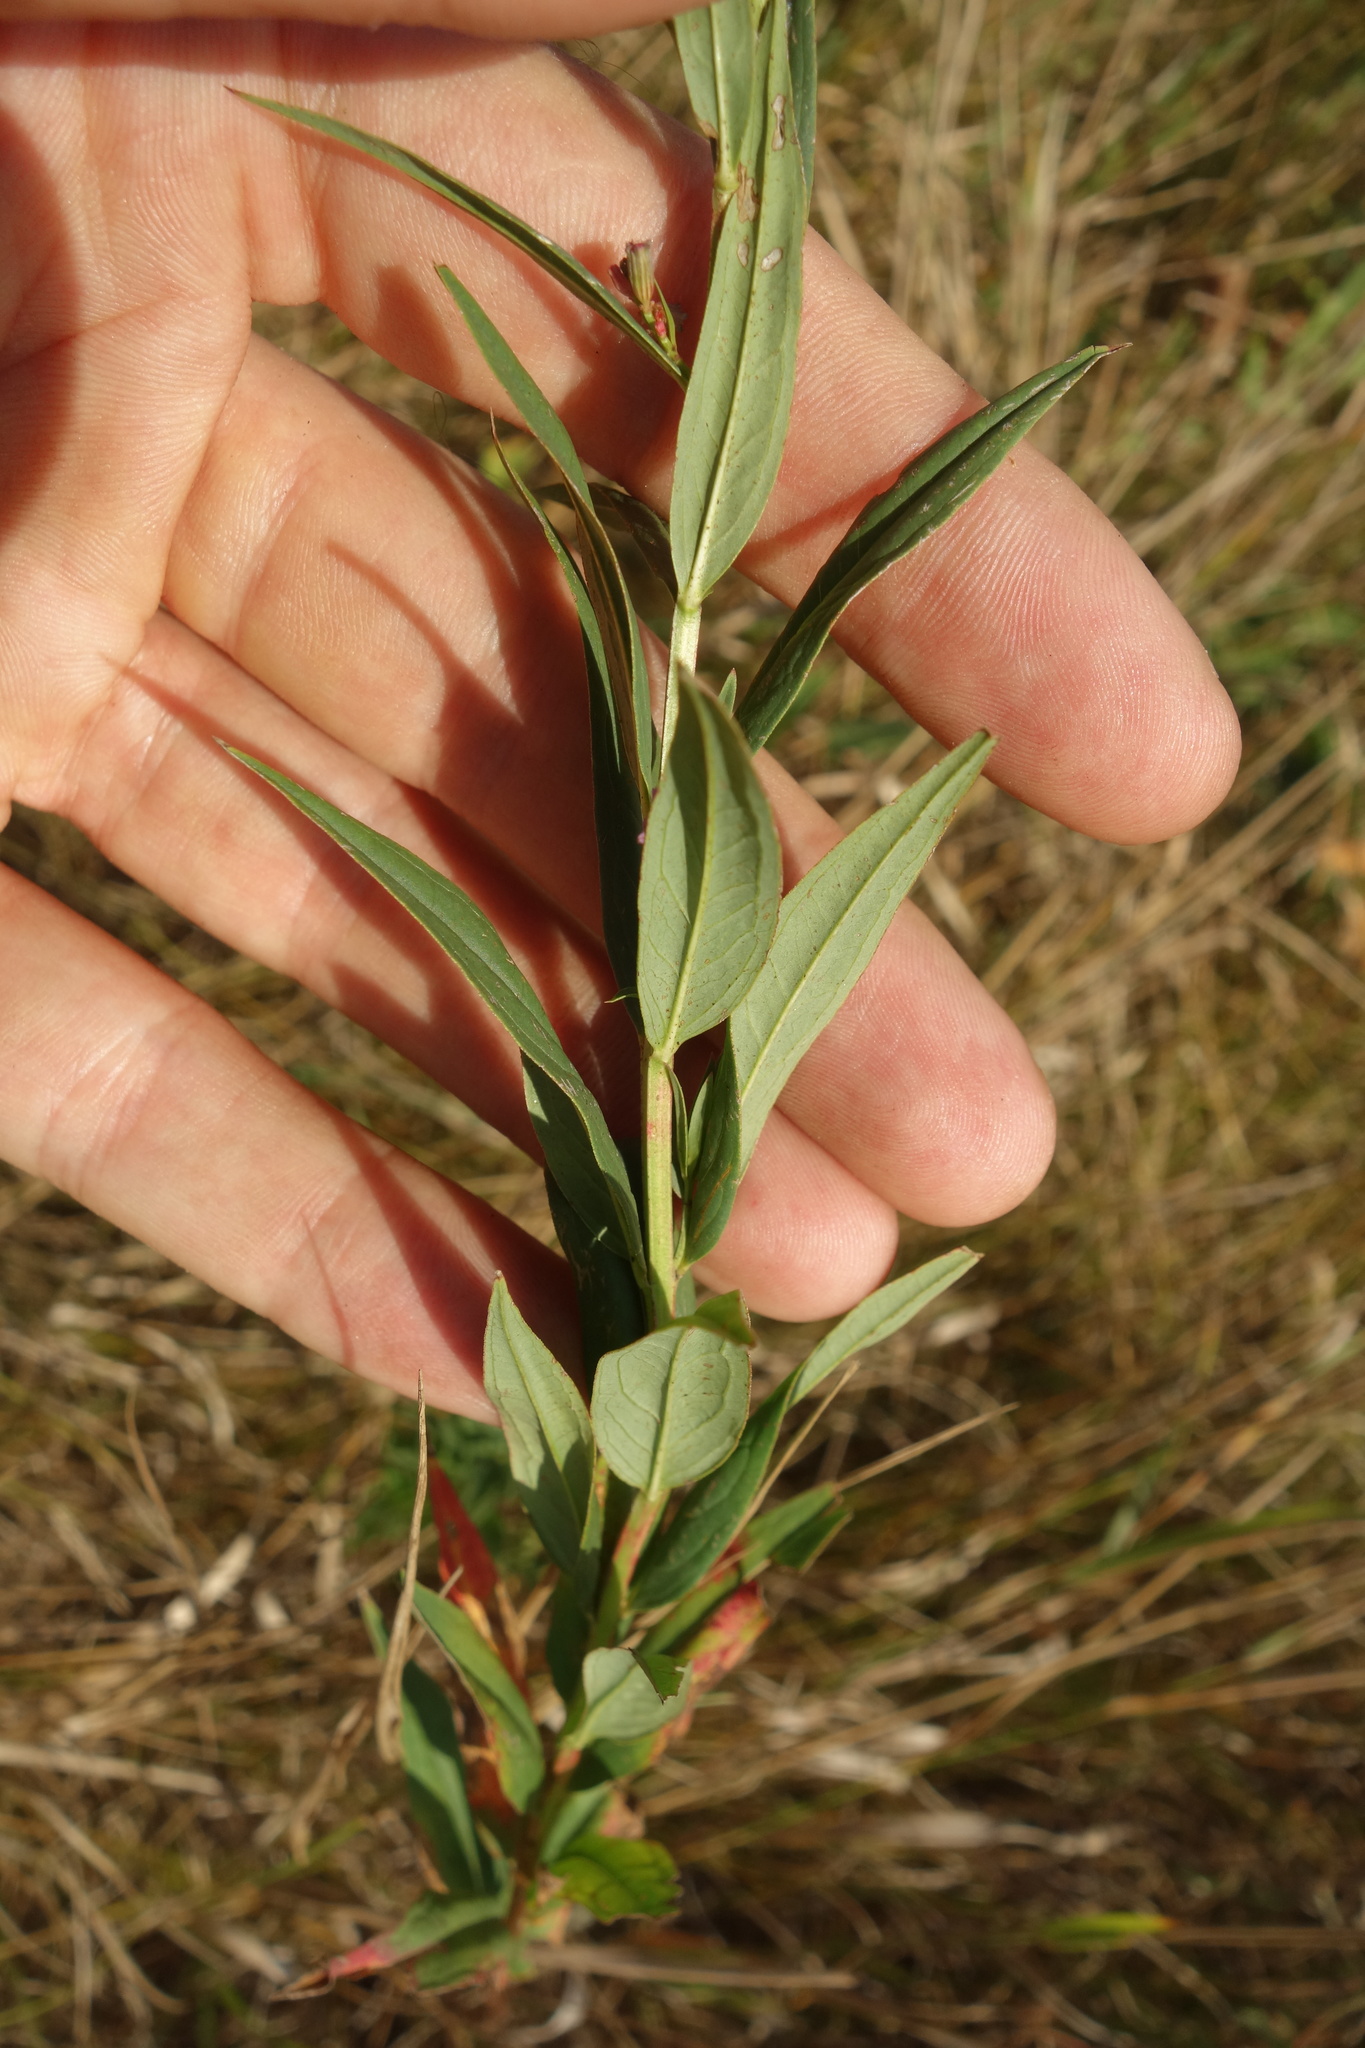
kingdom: Plantae
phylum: Tracheophyta
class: Magnoliopsida
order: Myrtales
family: Lythraceae
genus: Lythrum
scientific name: Lythrum virgatum
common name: European wand loosestrife
